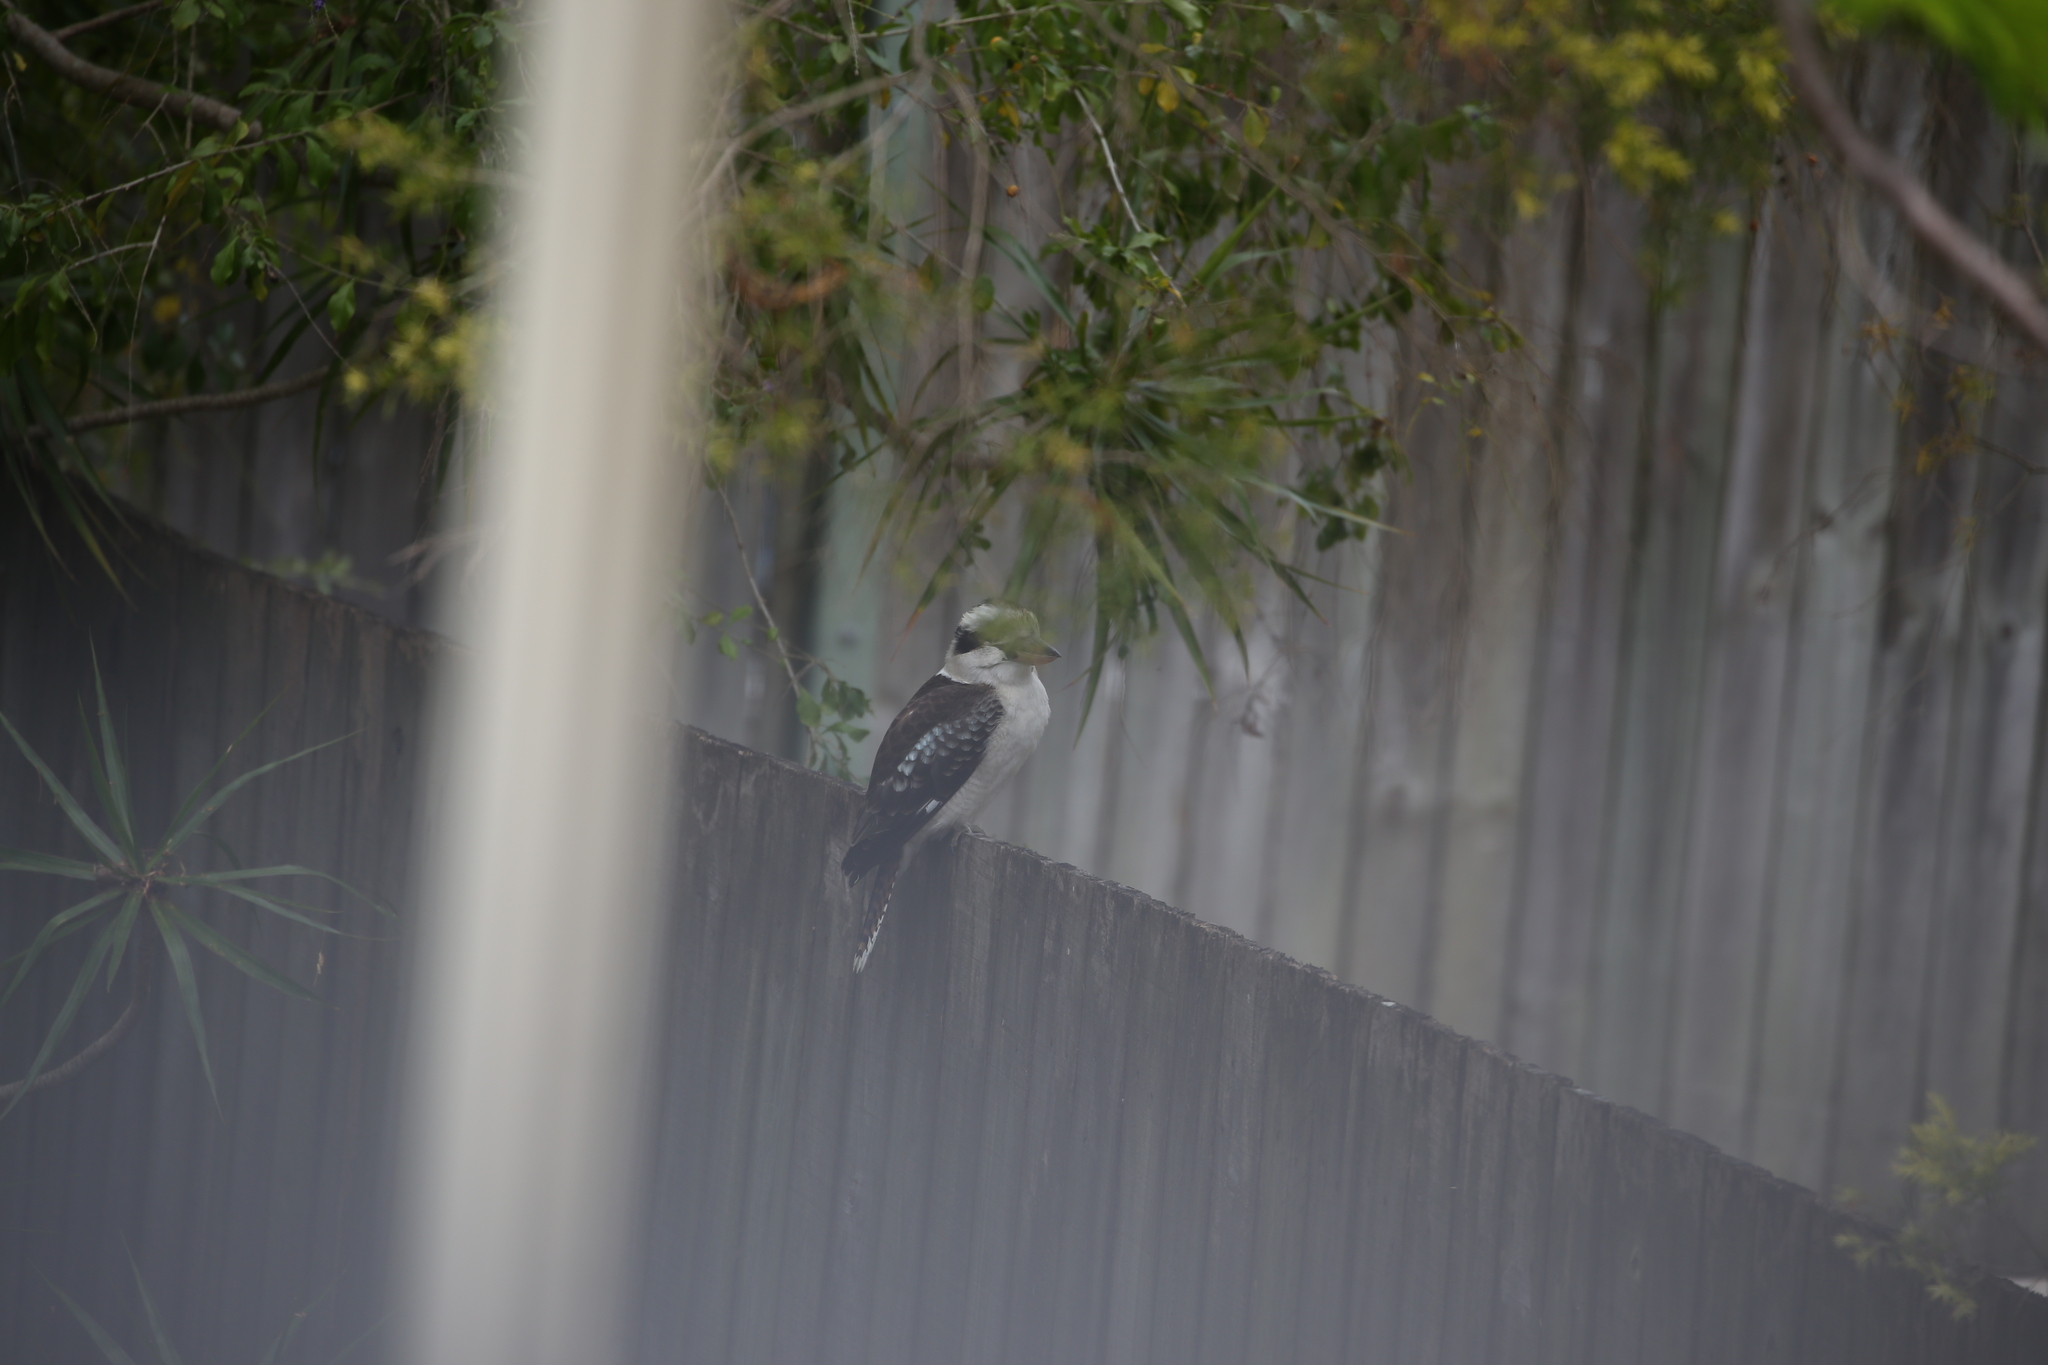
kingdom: Animalia
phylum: Chordata
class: Aves
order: Coraciiformes
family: Alcedinidae
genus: Dacelo
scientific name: Dacelo novaeguineae
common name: Laughing kookaburra
